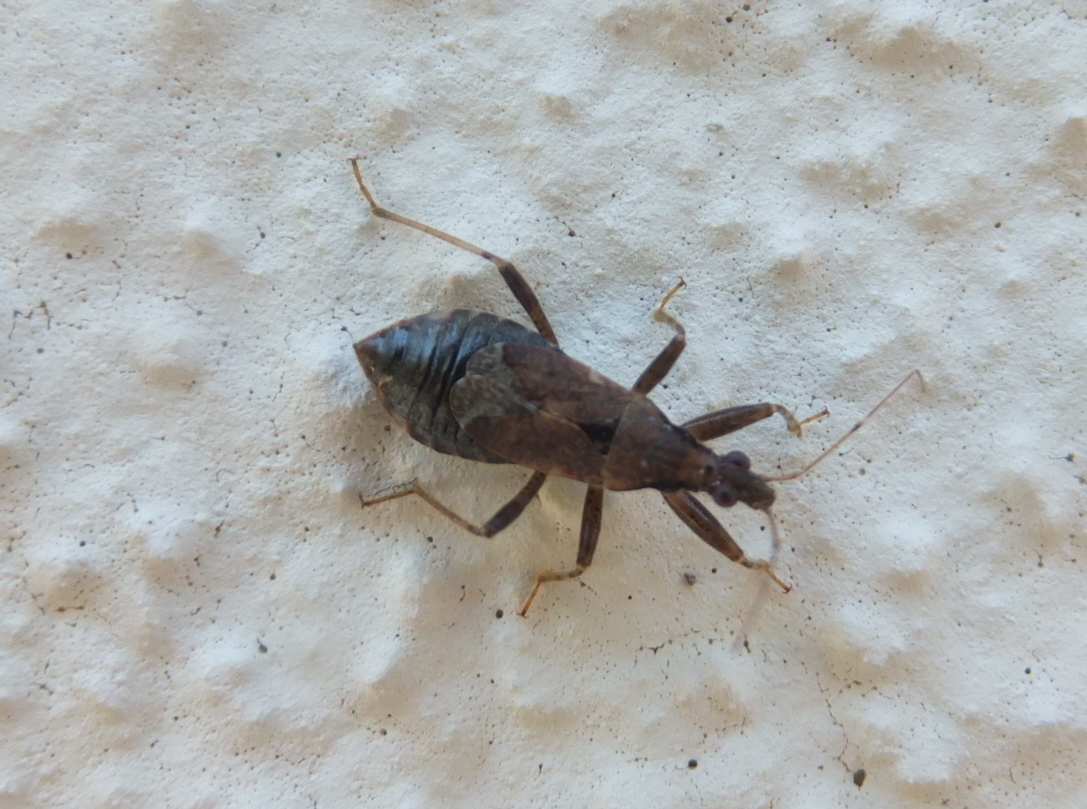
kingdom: Animalia
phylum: Arthropoda
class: Insecta
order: Hemiptera
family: Nabidae
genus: Himacerus
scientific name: Himacerus mirmicoides
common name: Ant damsel bug
